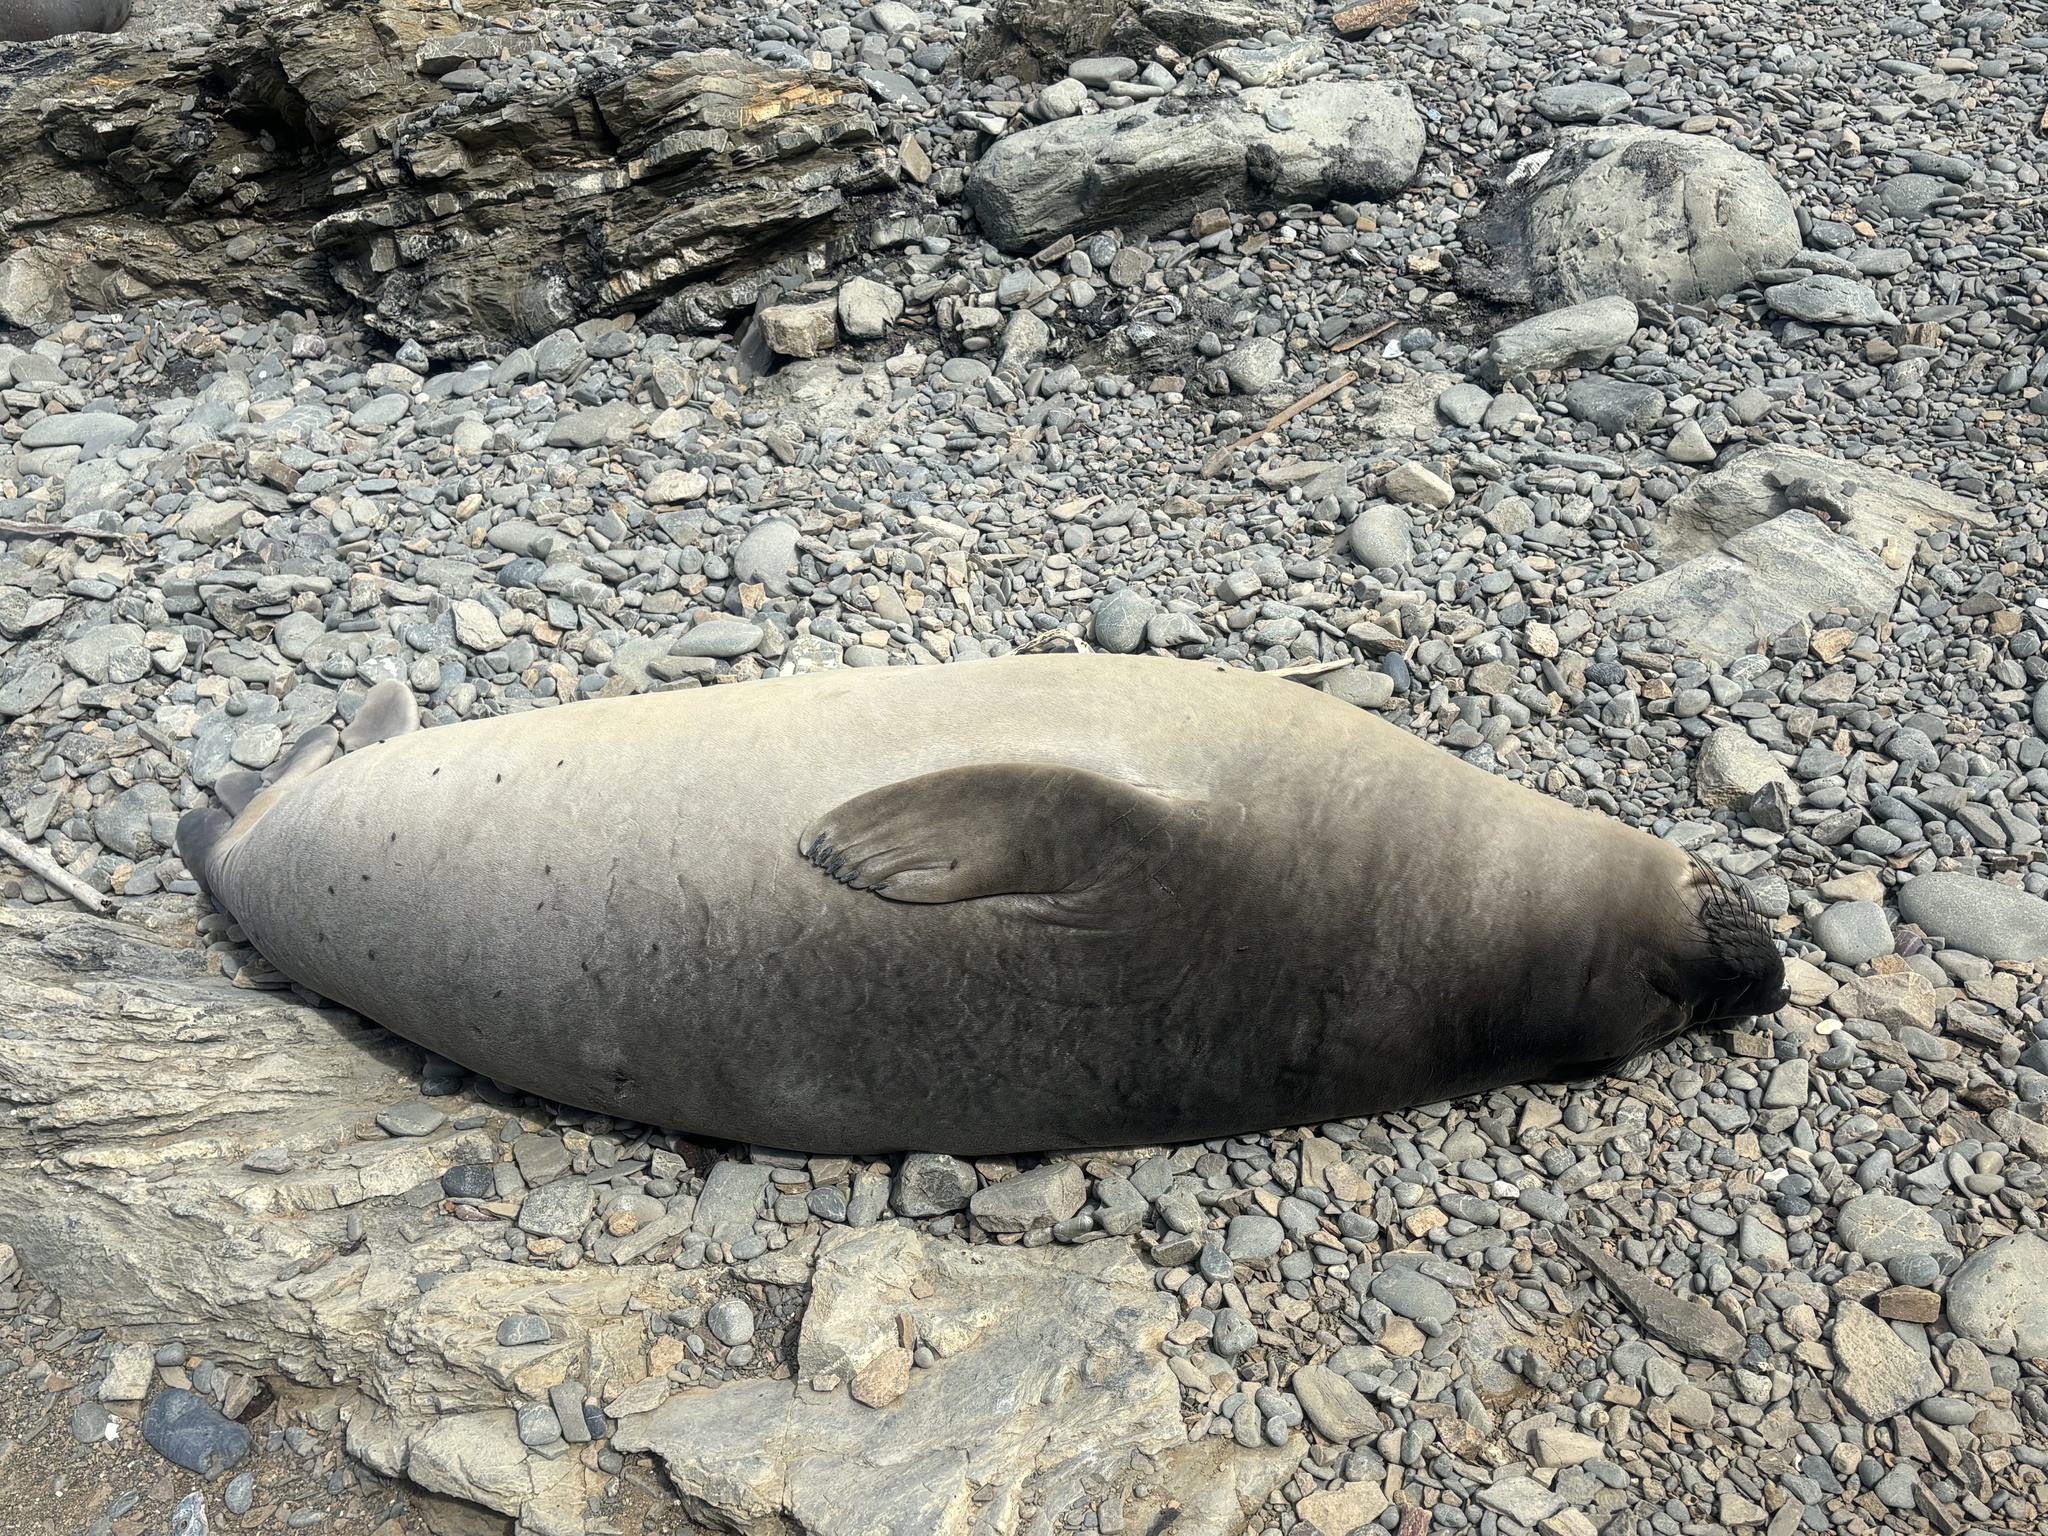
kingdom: Animalia
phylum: Chordata
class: Mammalia
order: Carnivora
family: Phocidae
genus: Mirounga
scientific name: Mirounga angustirostris
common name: Northern elephant seal
